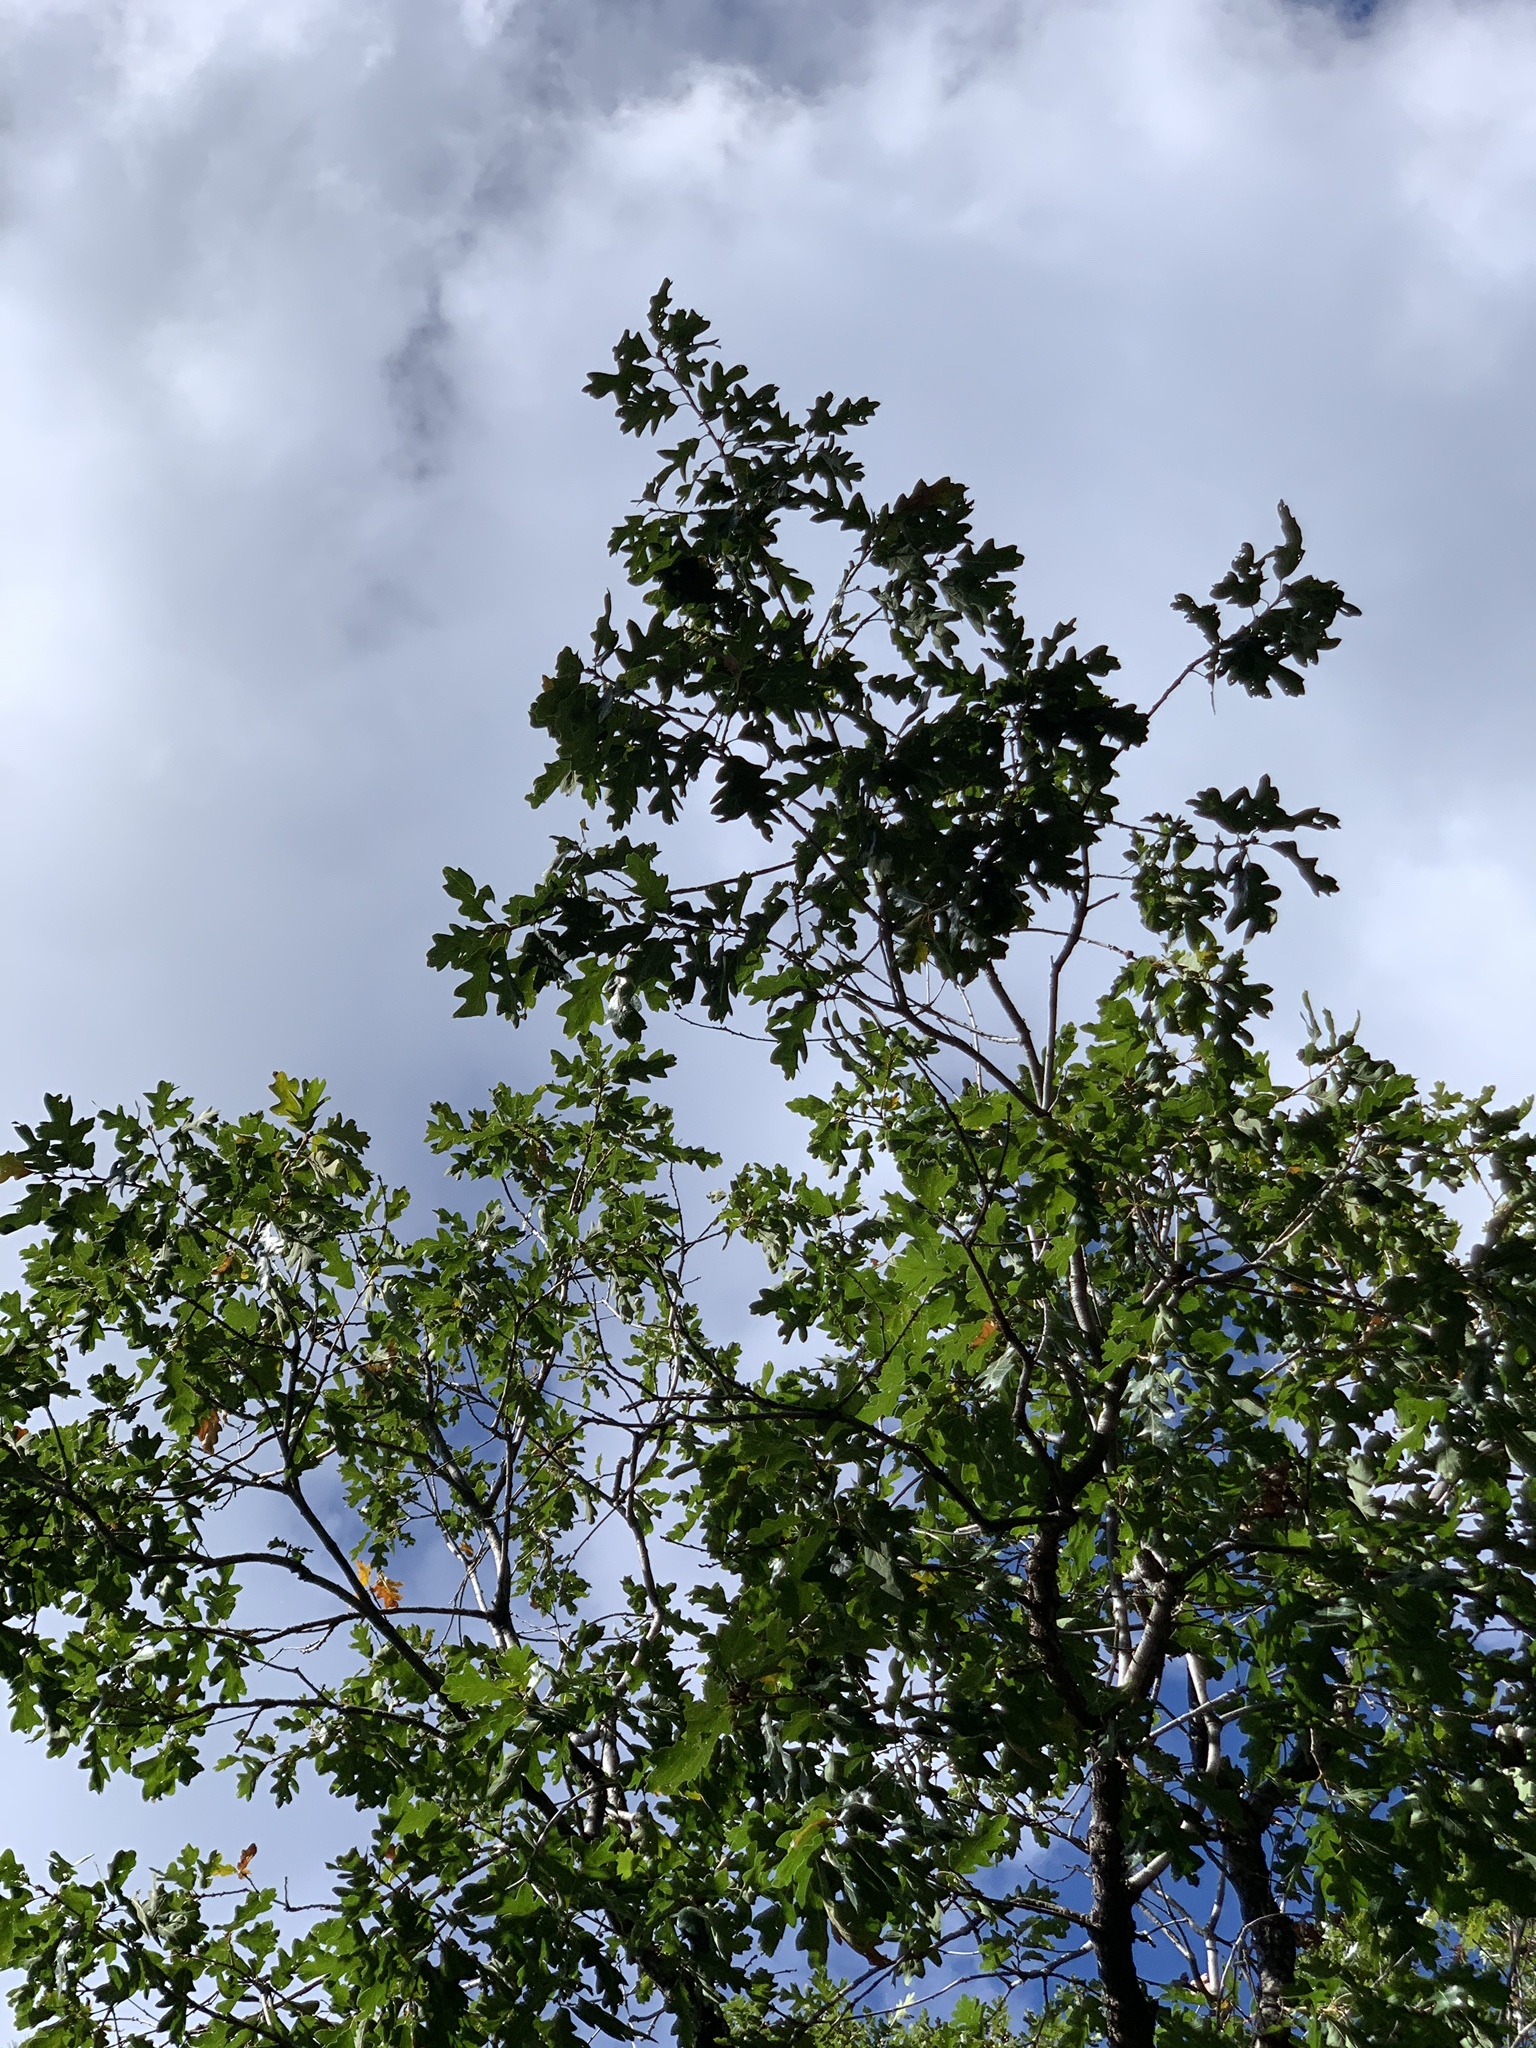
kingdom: Plantae
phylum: Tracheophyta
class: Magnoliopsida
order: Fagales
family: Fagaceae
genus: Quercus
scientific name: Quercus gambelii
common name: Gambel oak
